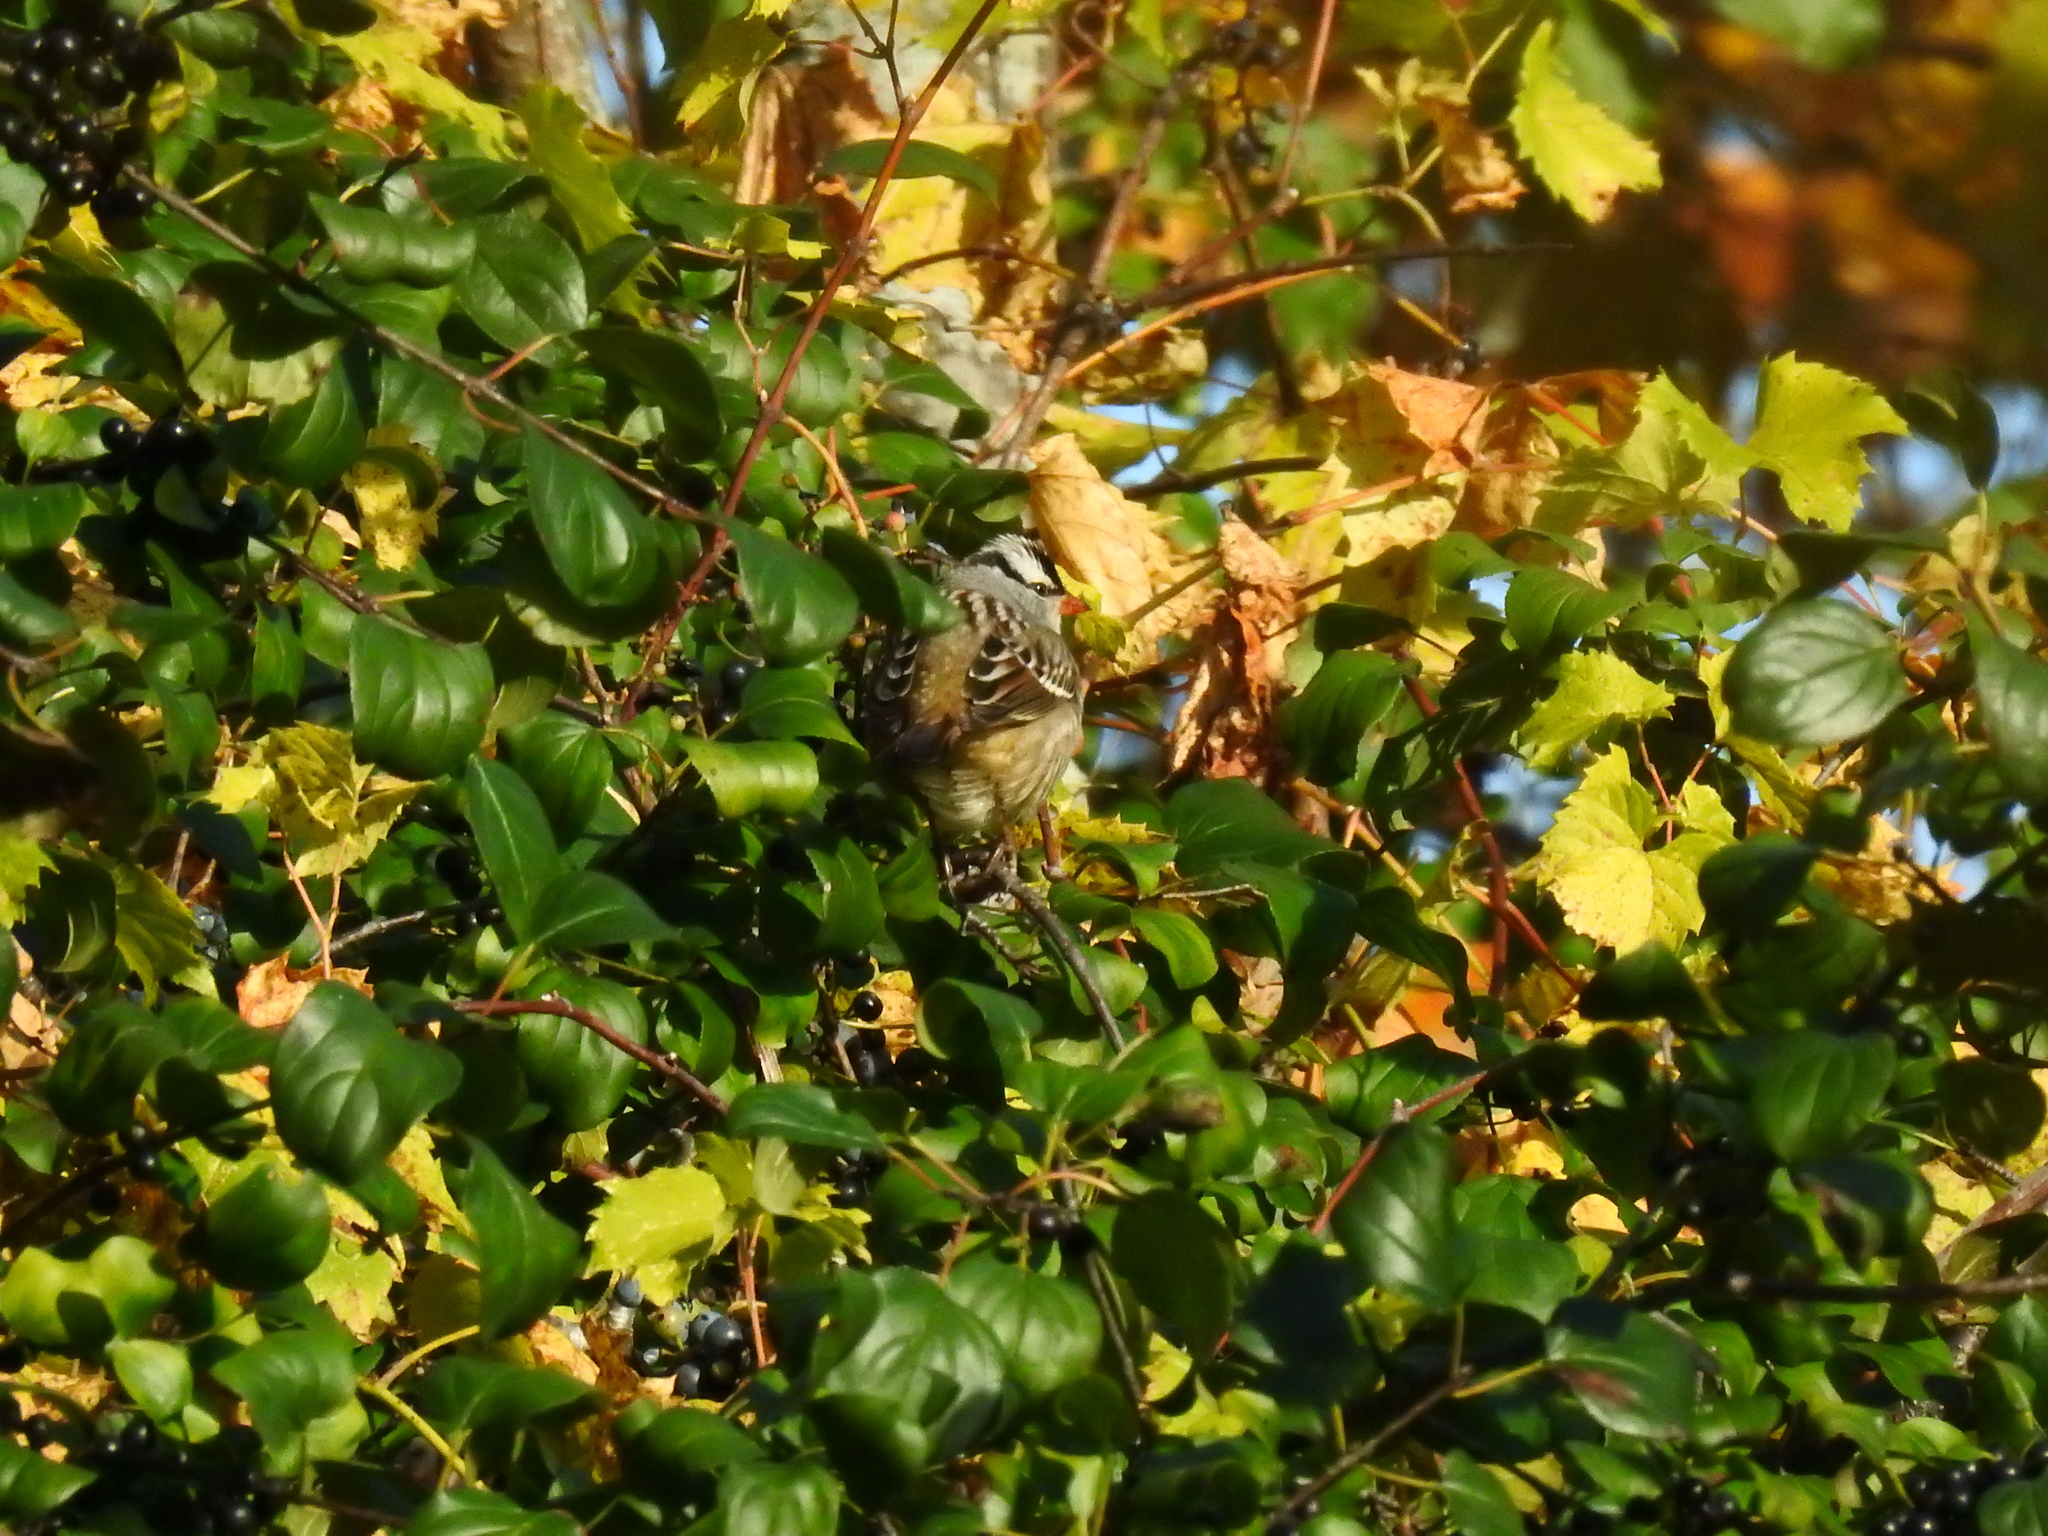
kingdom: Animalia
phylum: Chordata
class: Aves
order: Passeriformes
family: Passerellidae
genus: Zonotrichia
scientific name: Zonotrichia leucophrys
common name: White-crowned sparrow
